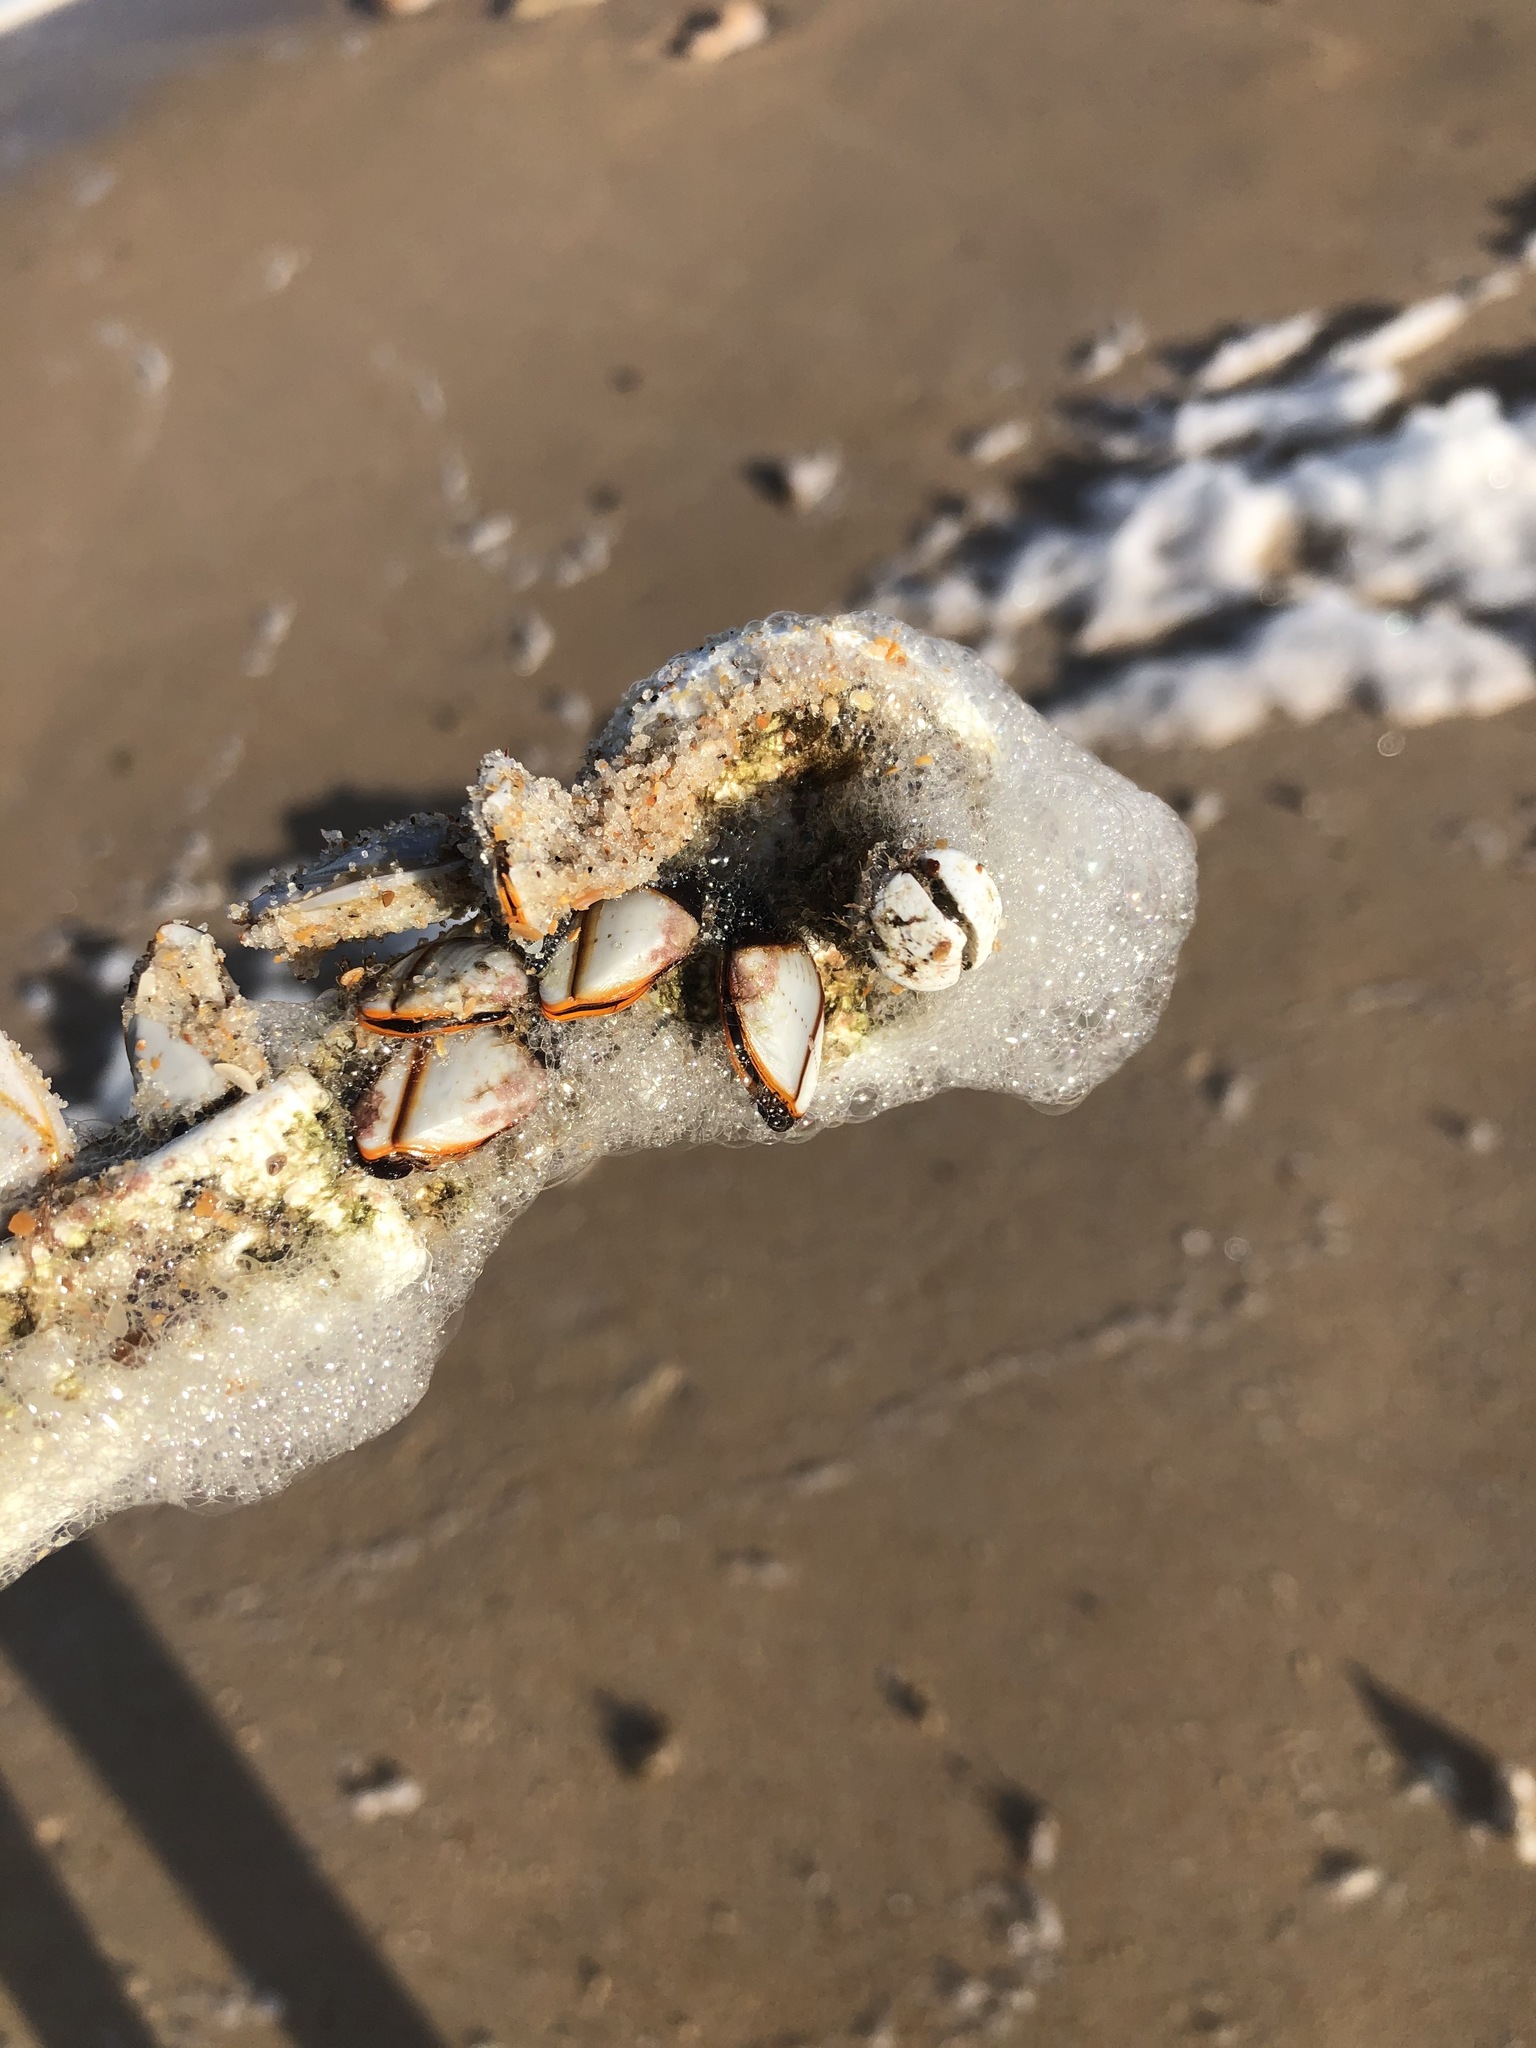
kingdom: Animalia
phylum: Arthropoda
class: Maxillopoda
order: Pedunculata
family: Lepadidae
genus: Lepas
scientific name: Lepas indica
